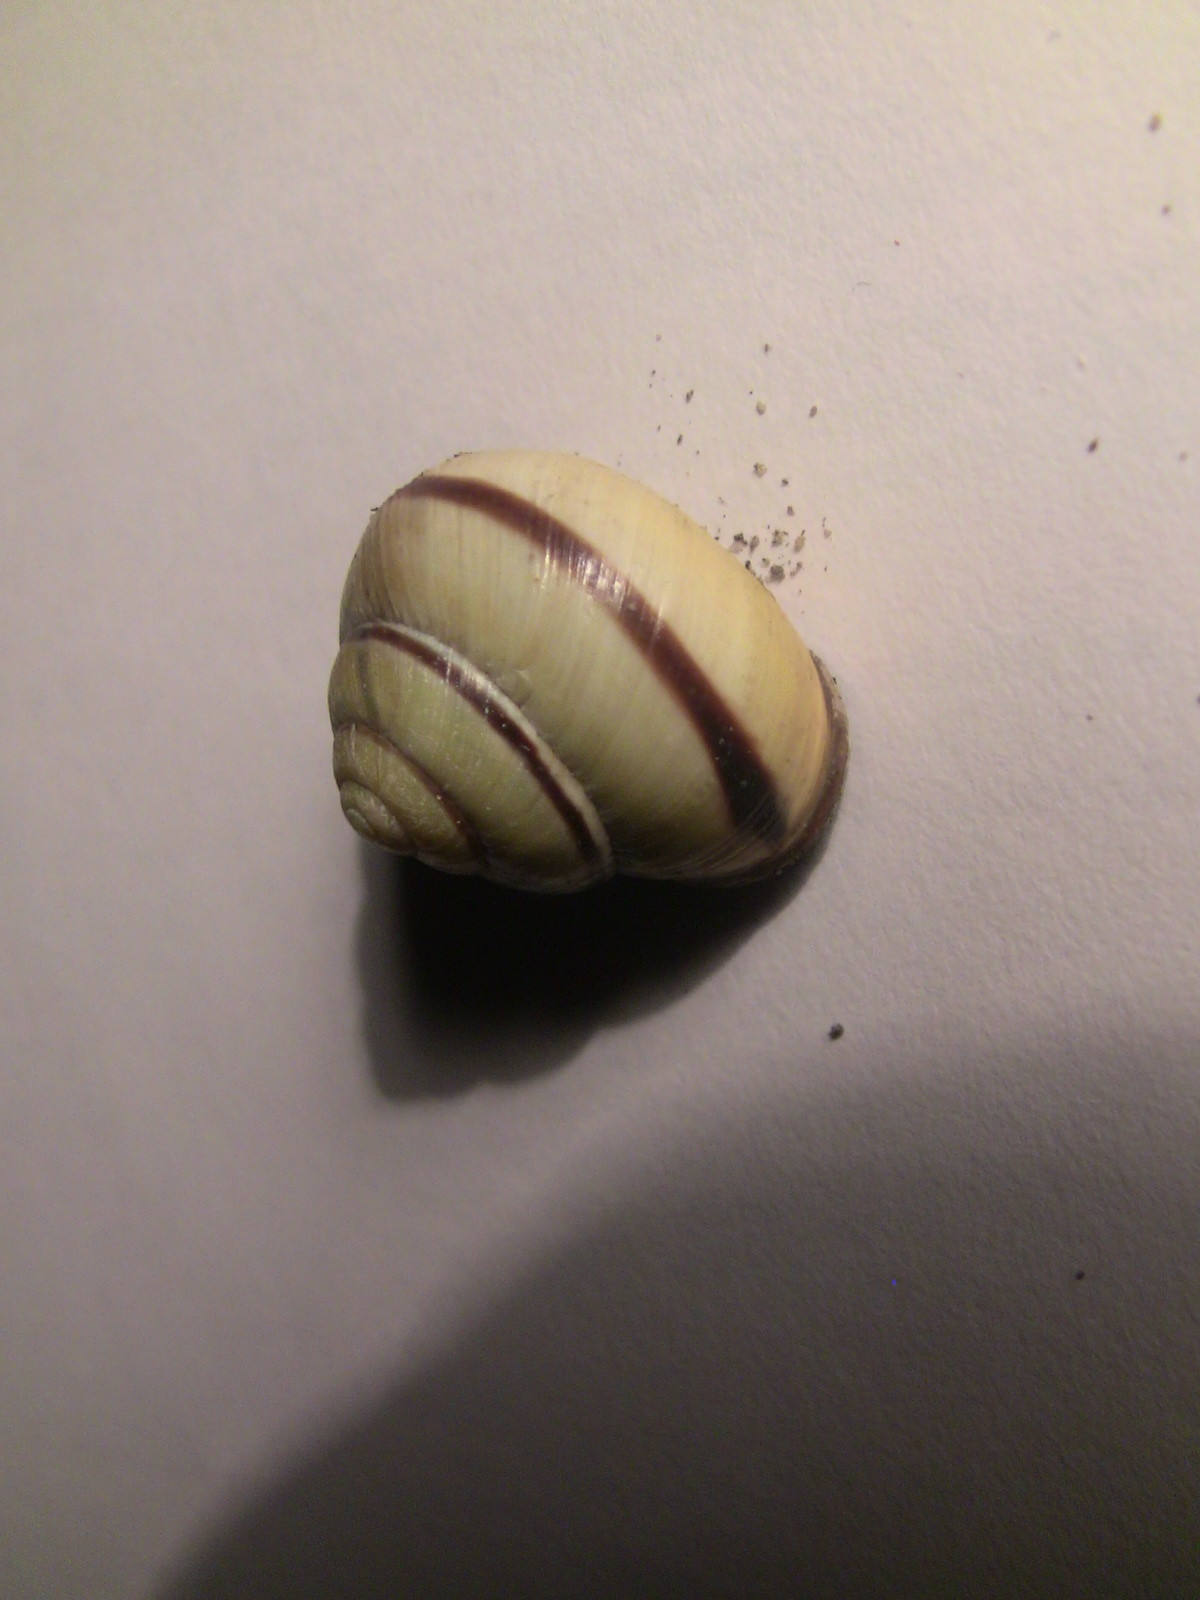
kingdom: Animalia
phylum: Mollusca
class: Gastropoda
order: Stylommatophora
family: Helicidae
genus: Cepaea
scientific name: Cepaea nemoralis
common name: Grovesnail
